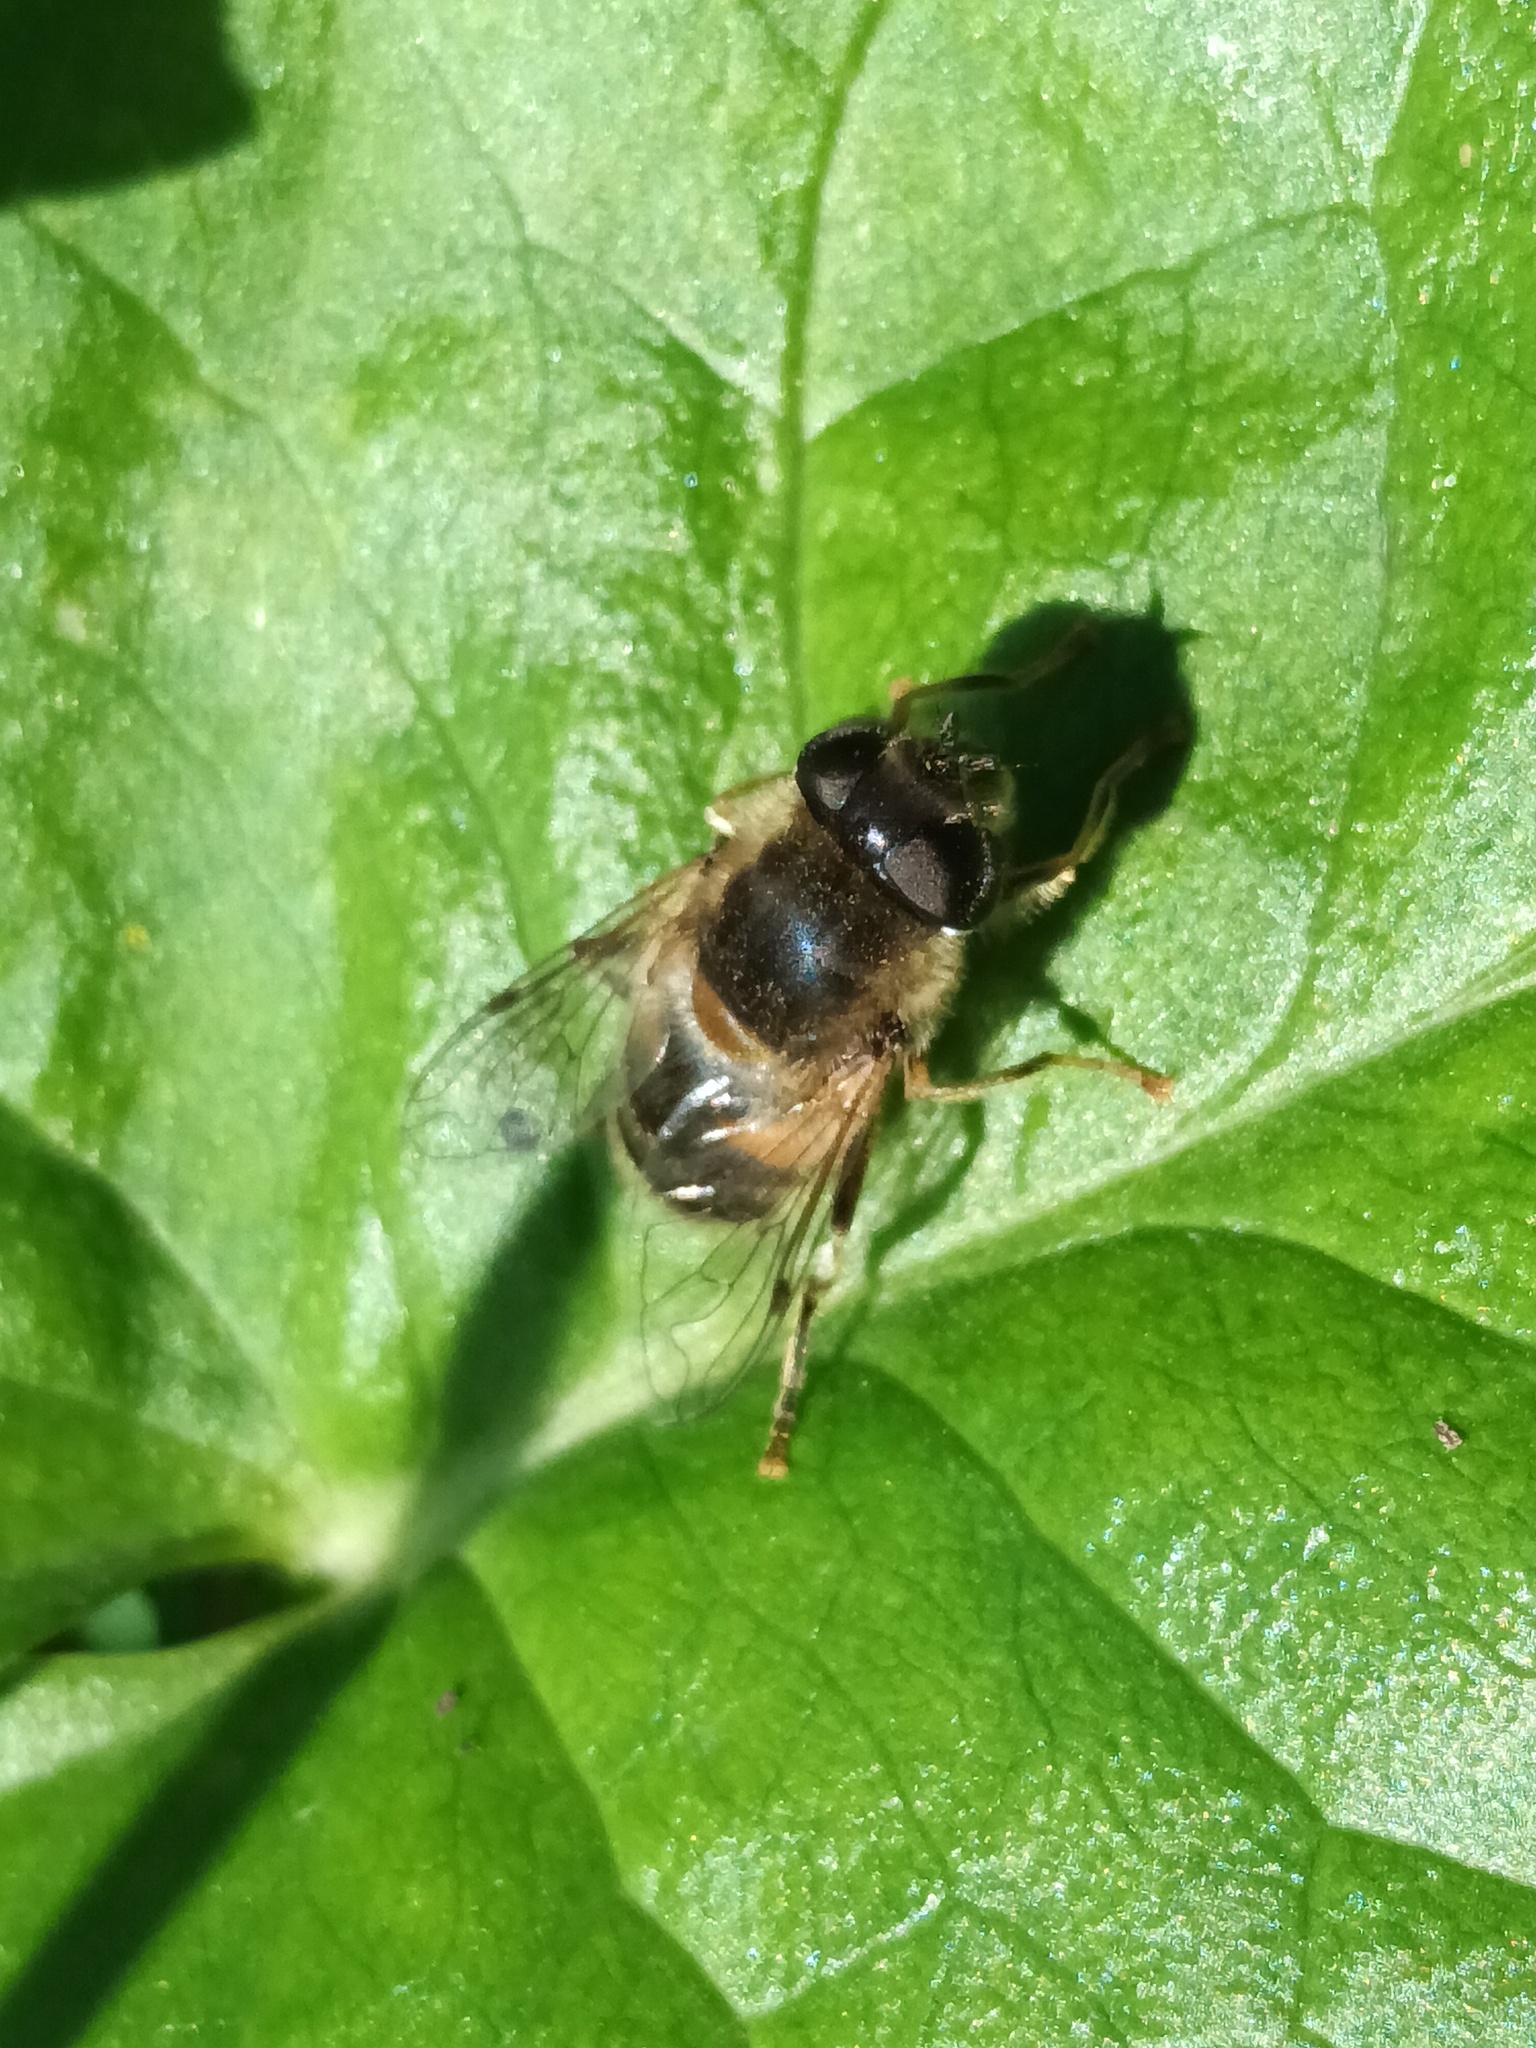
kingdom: Animalia
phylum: Arthropoda
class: Insecta
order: Diptera
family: Syrphidae
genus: Eristalis
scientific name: Eristalis pertinax
